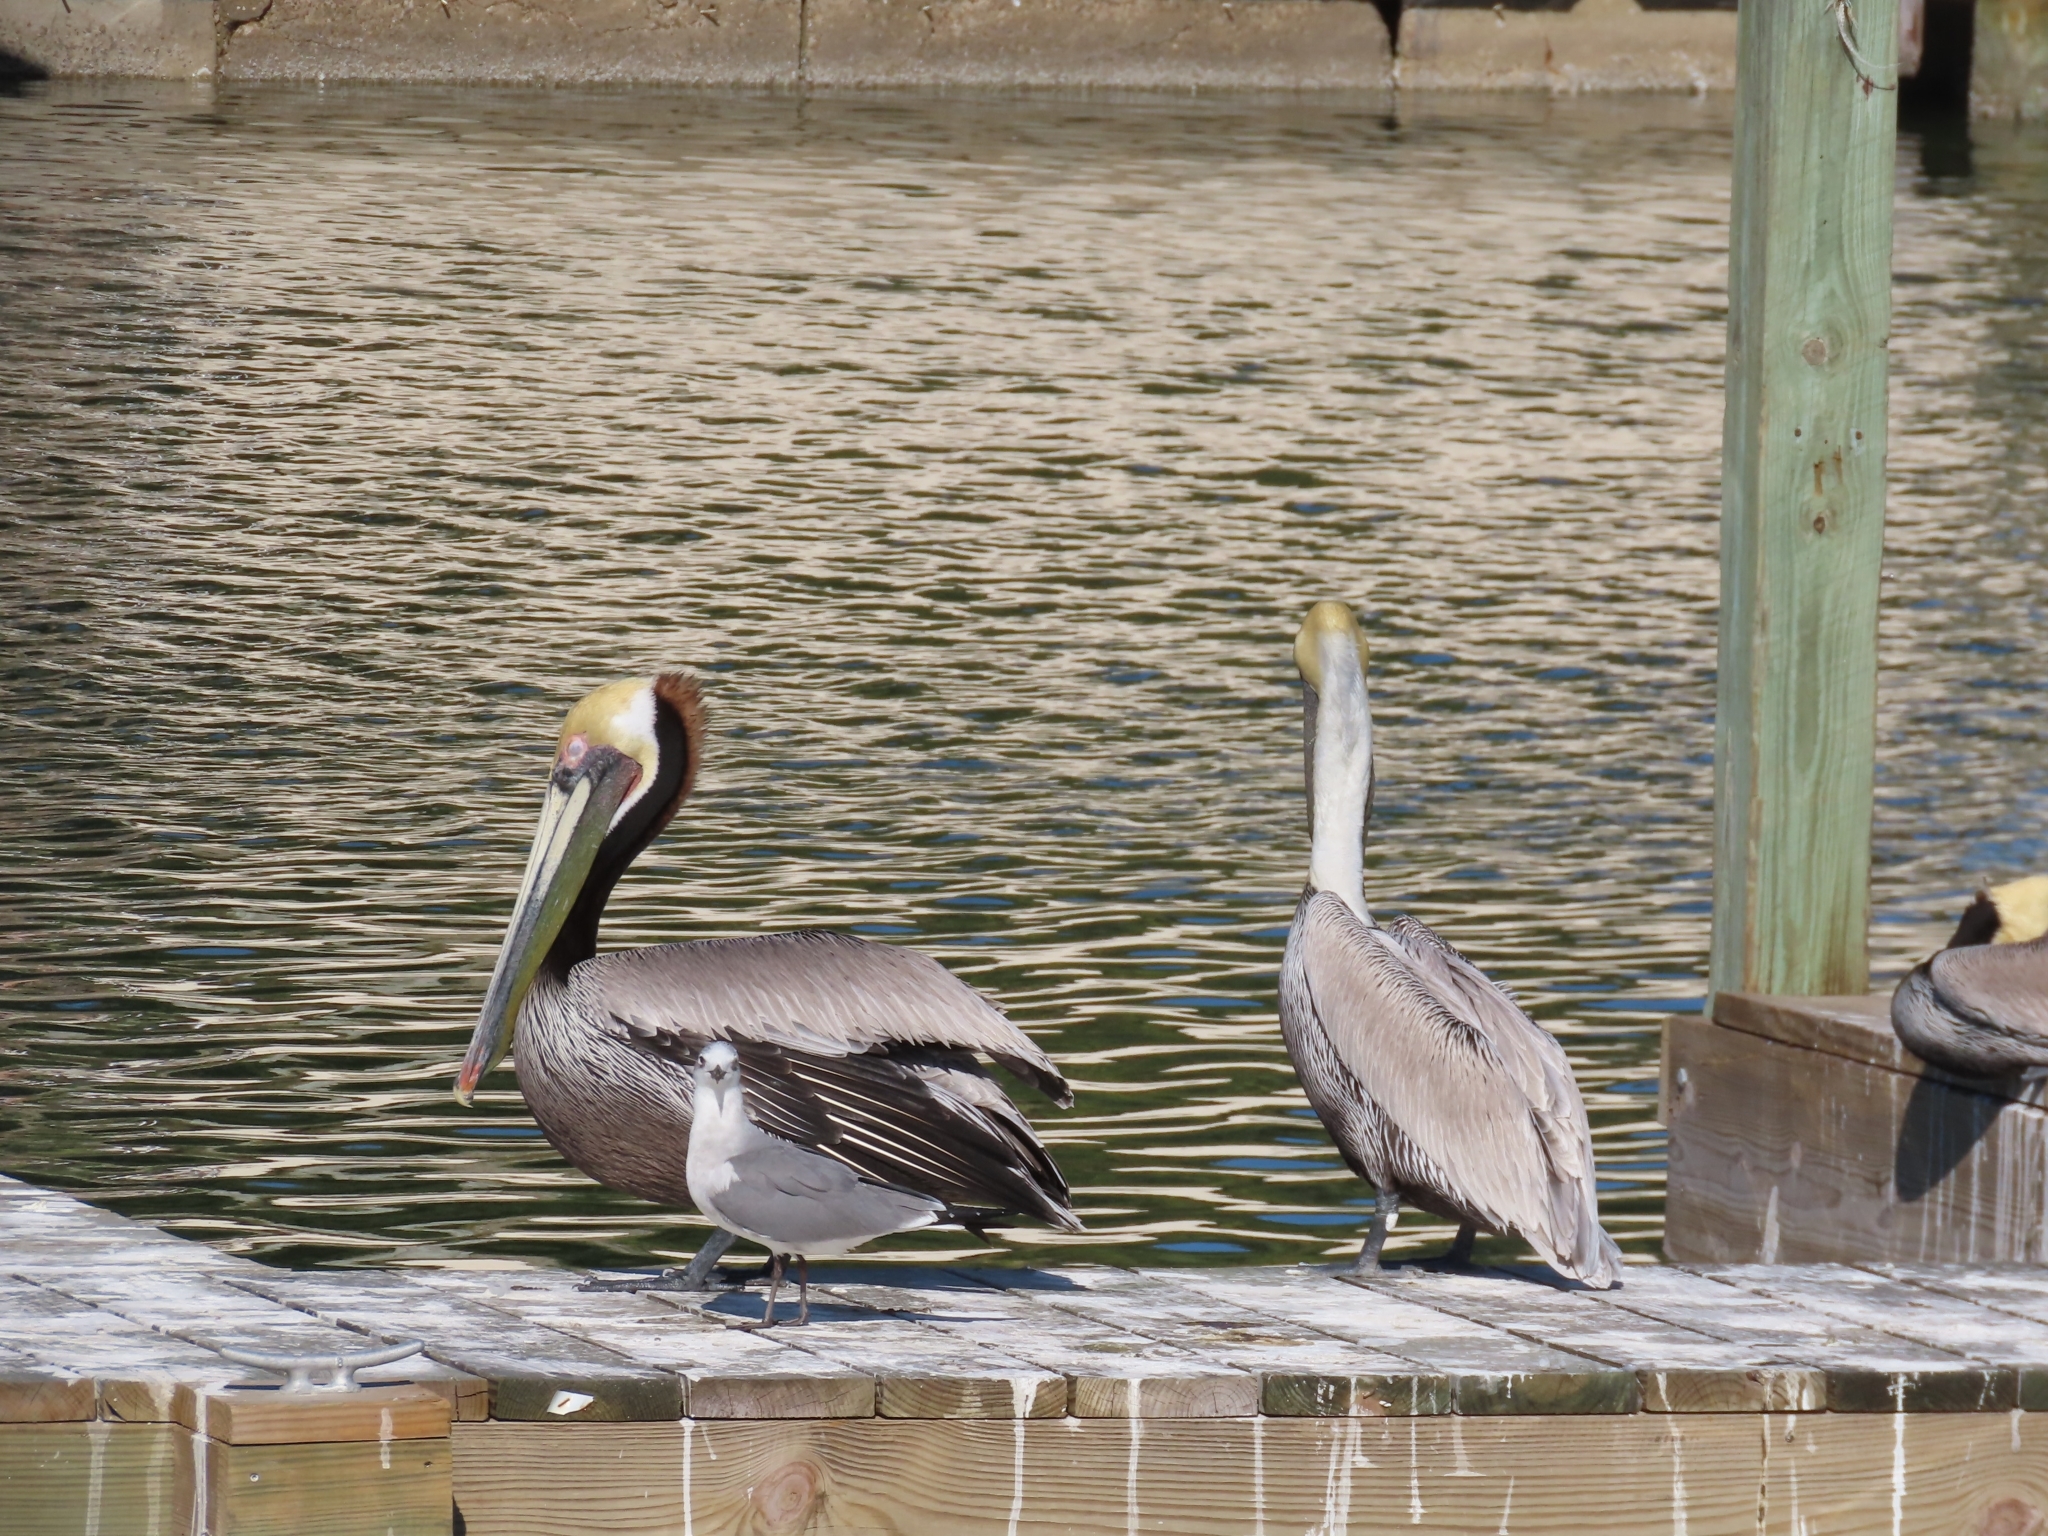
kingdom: Animalia
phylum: Chordata
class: Aves
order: Pelecaniformes
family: Pelecanidae
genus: Pelecanus
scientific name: Pelecanus occidentalis
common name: Brown pelican
